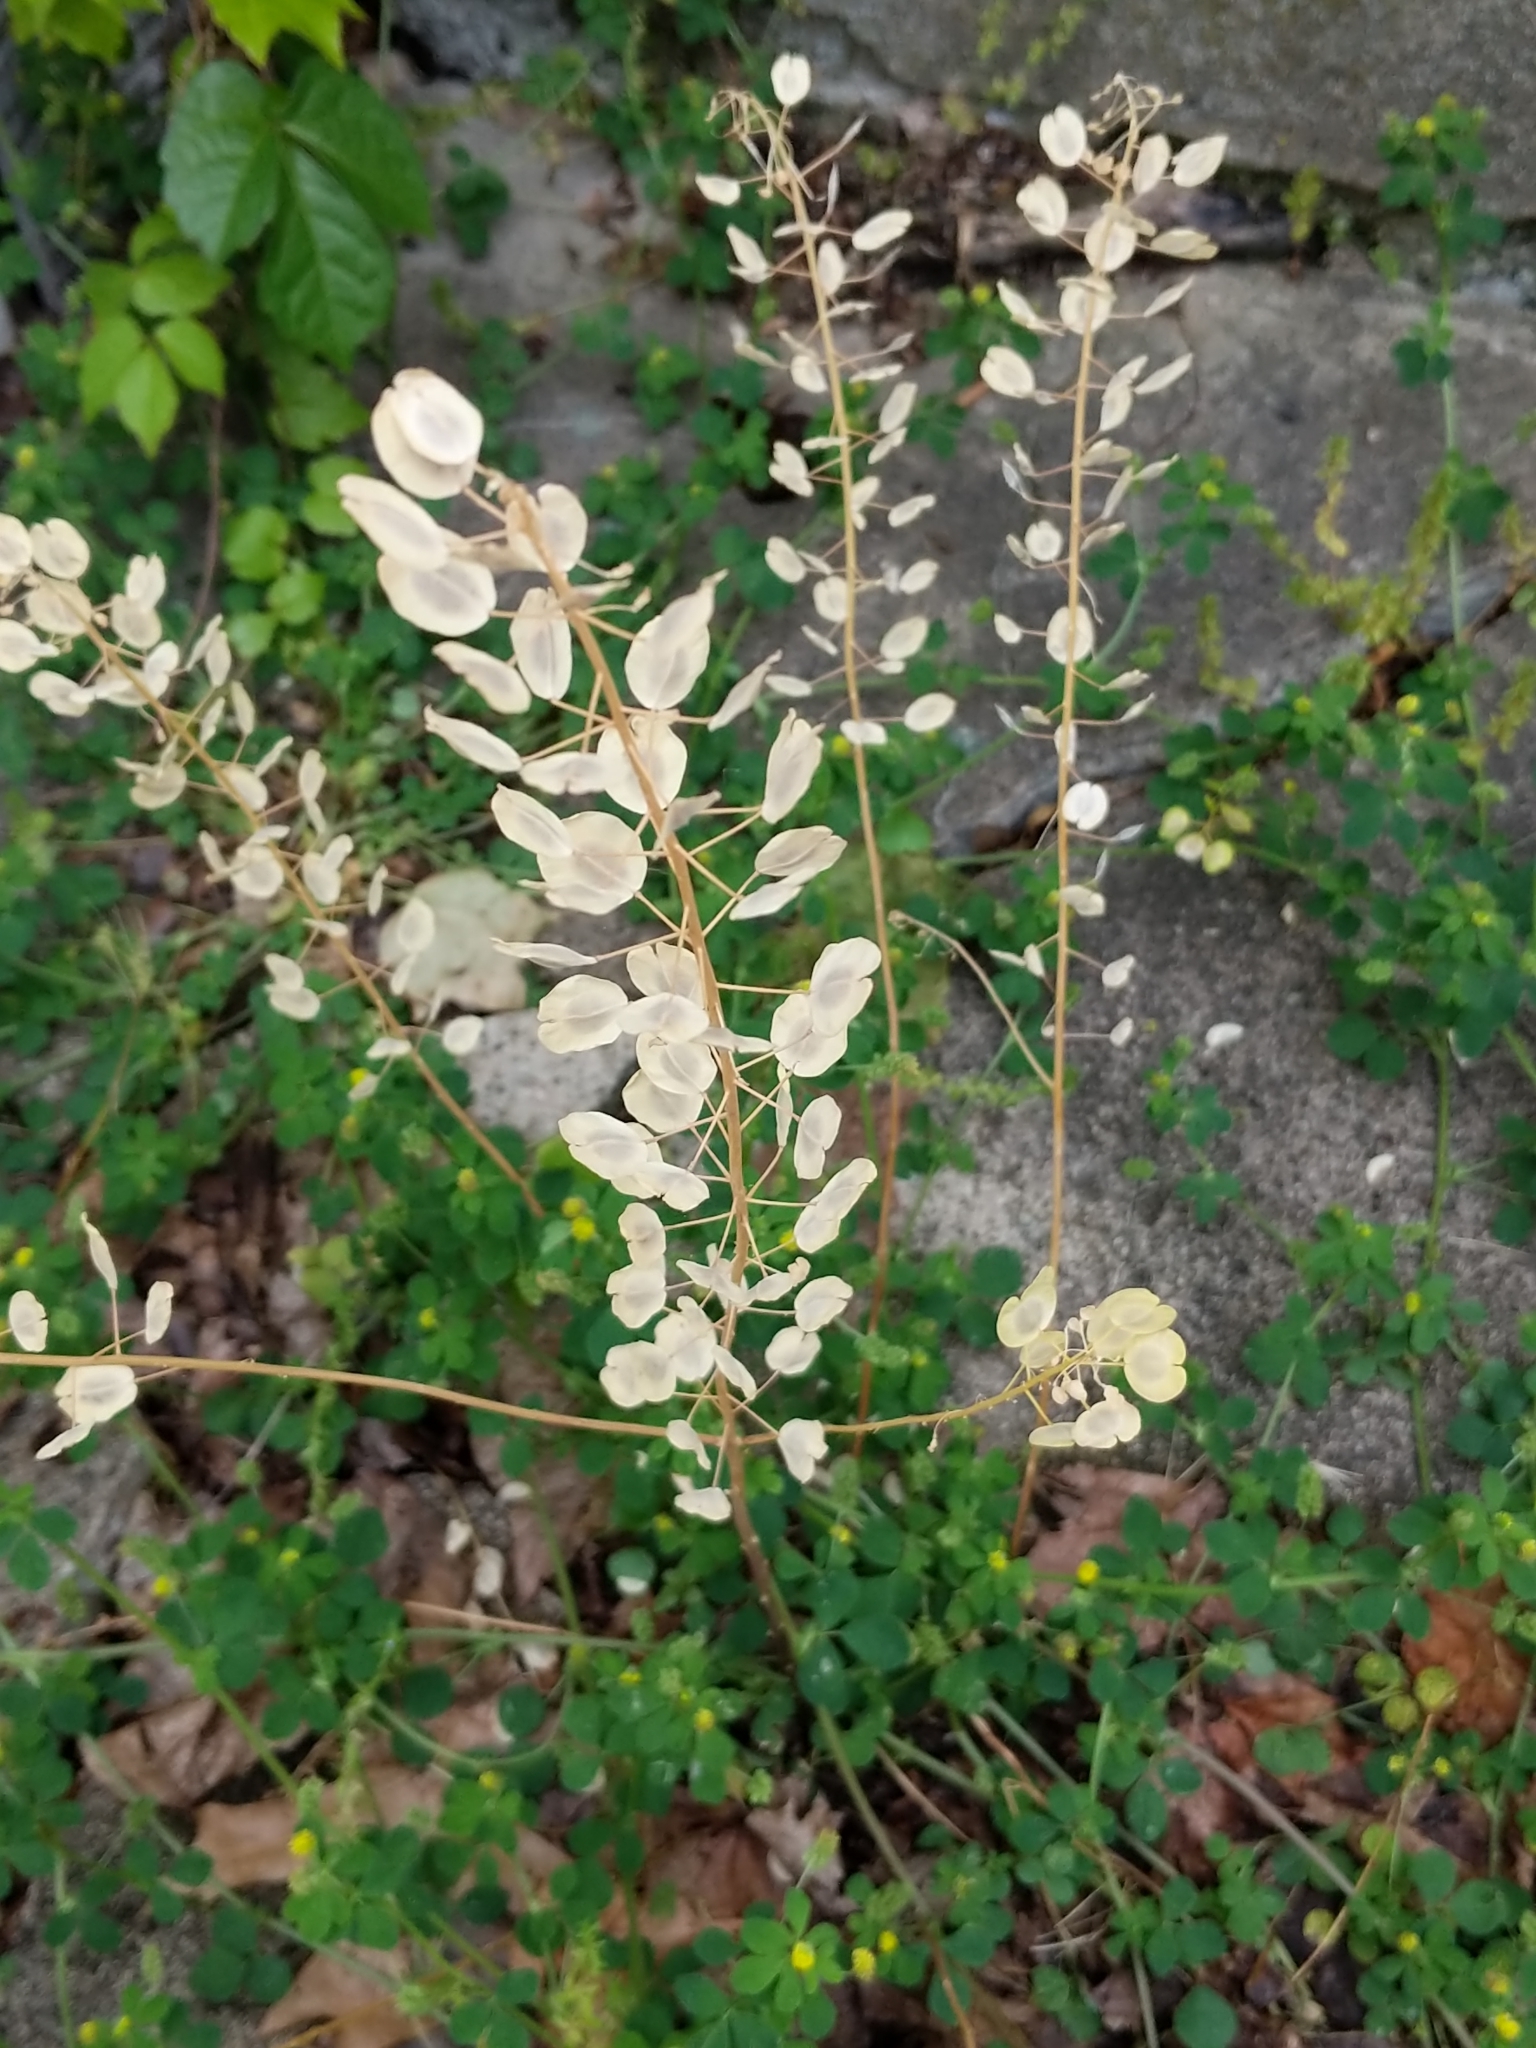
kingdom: Plantae
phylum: Tracheophyta
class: Magnoliopsida
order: Brassicales
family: Brassicaceae
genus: Thlaspi
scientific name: Thlaspi arvense
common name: Field pennycress
